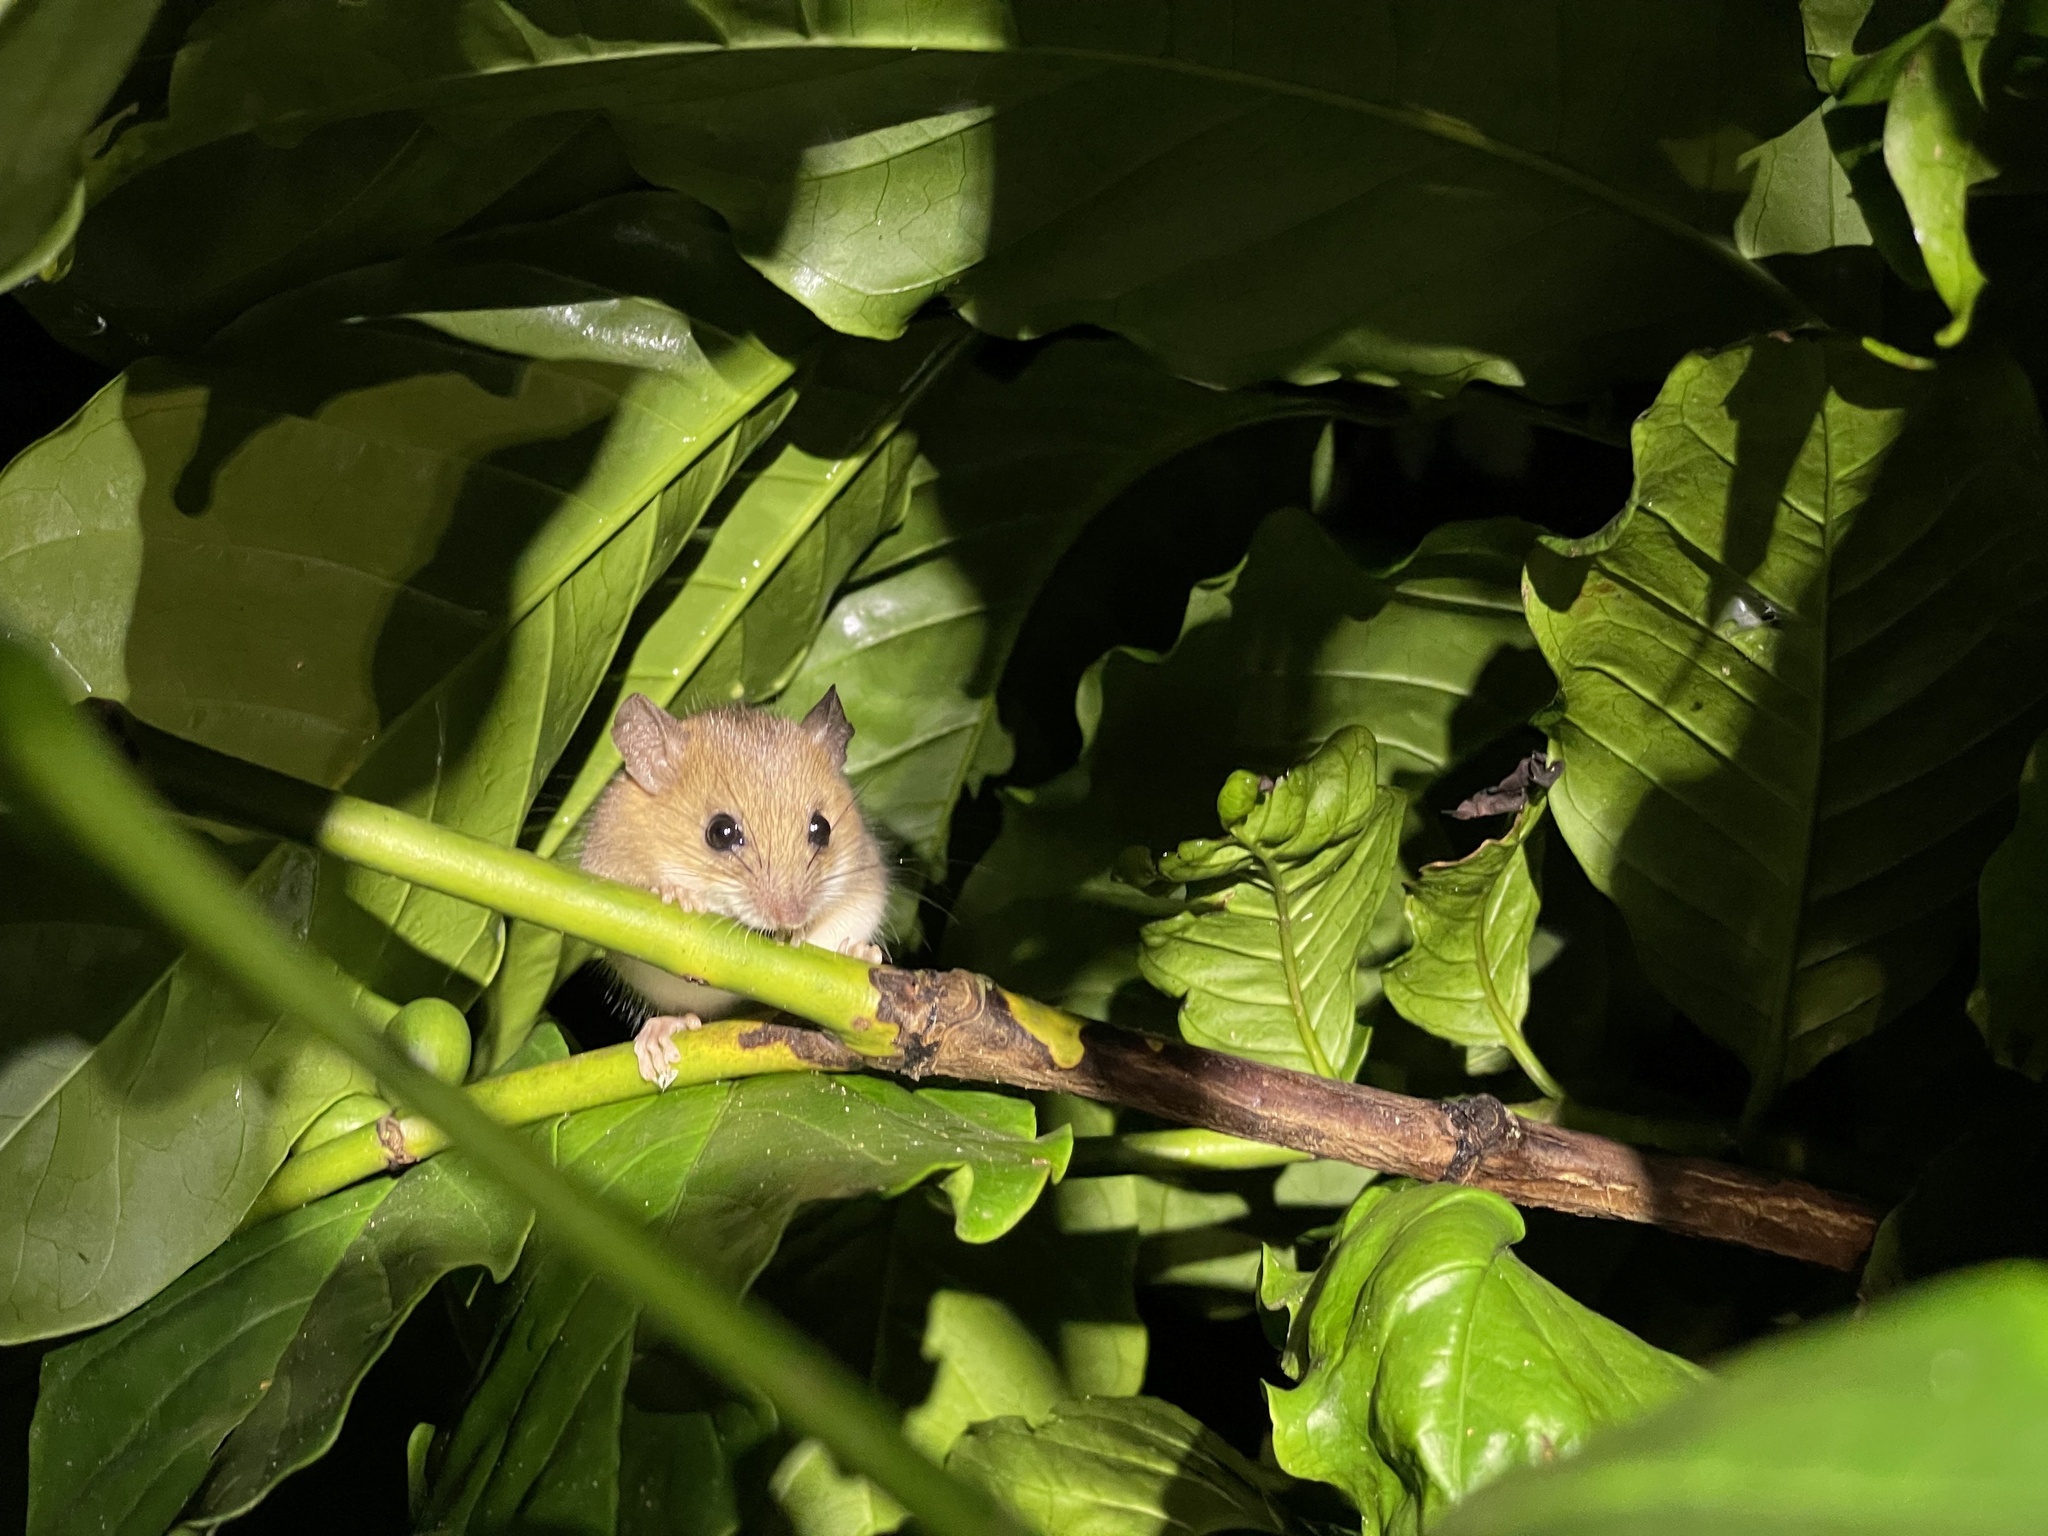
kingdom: Animalia
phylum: Chordata
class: Mammalia
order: Rodentia
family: Muridae
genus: Rattus
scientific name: Rattus satarae
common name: Sahyadris forest rat
